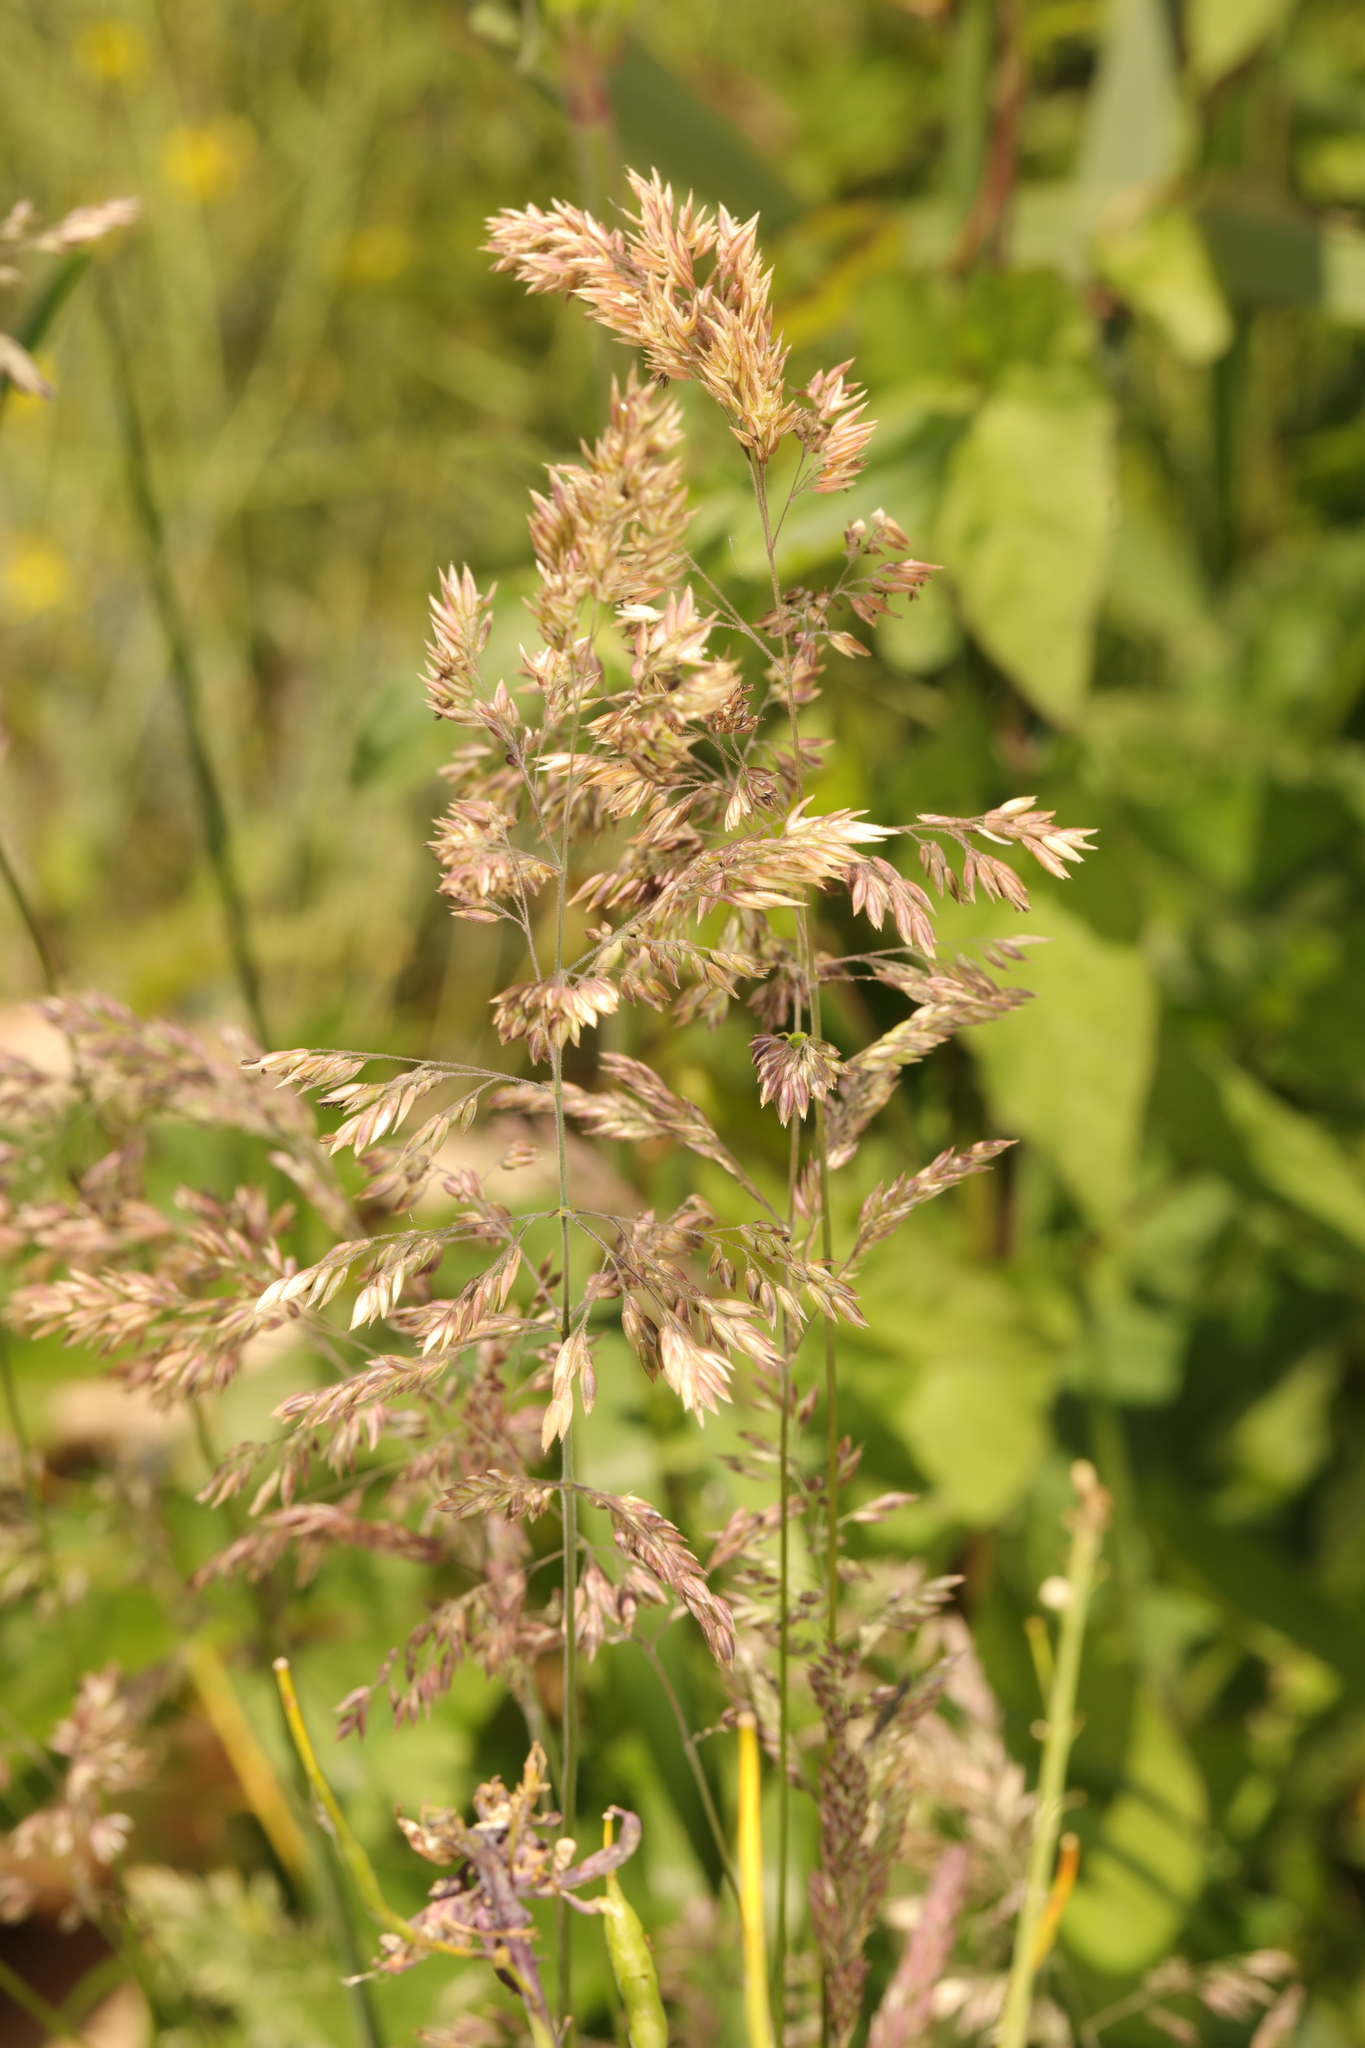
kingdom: Plantae
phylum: Tracheophyta
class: Liliopsida
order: Poales
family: Poaceae
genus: Holcus
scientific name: Holcus lanatus
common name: Yorkshire-fog
